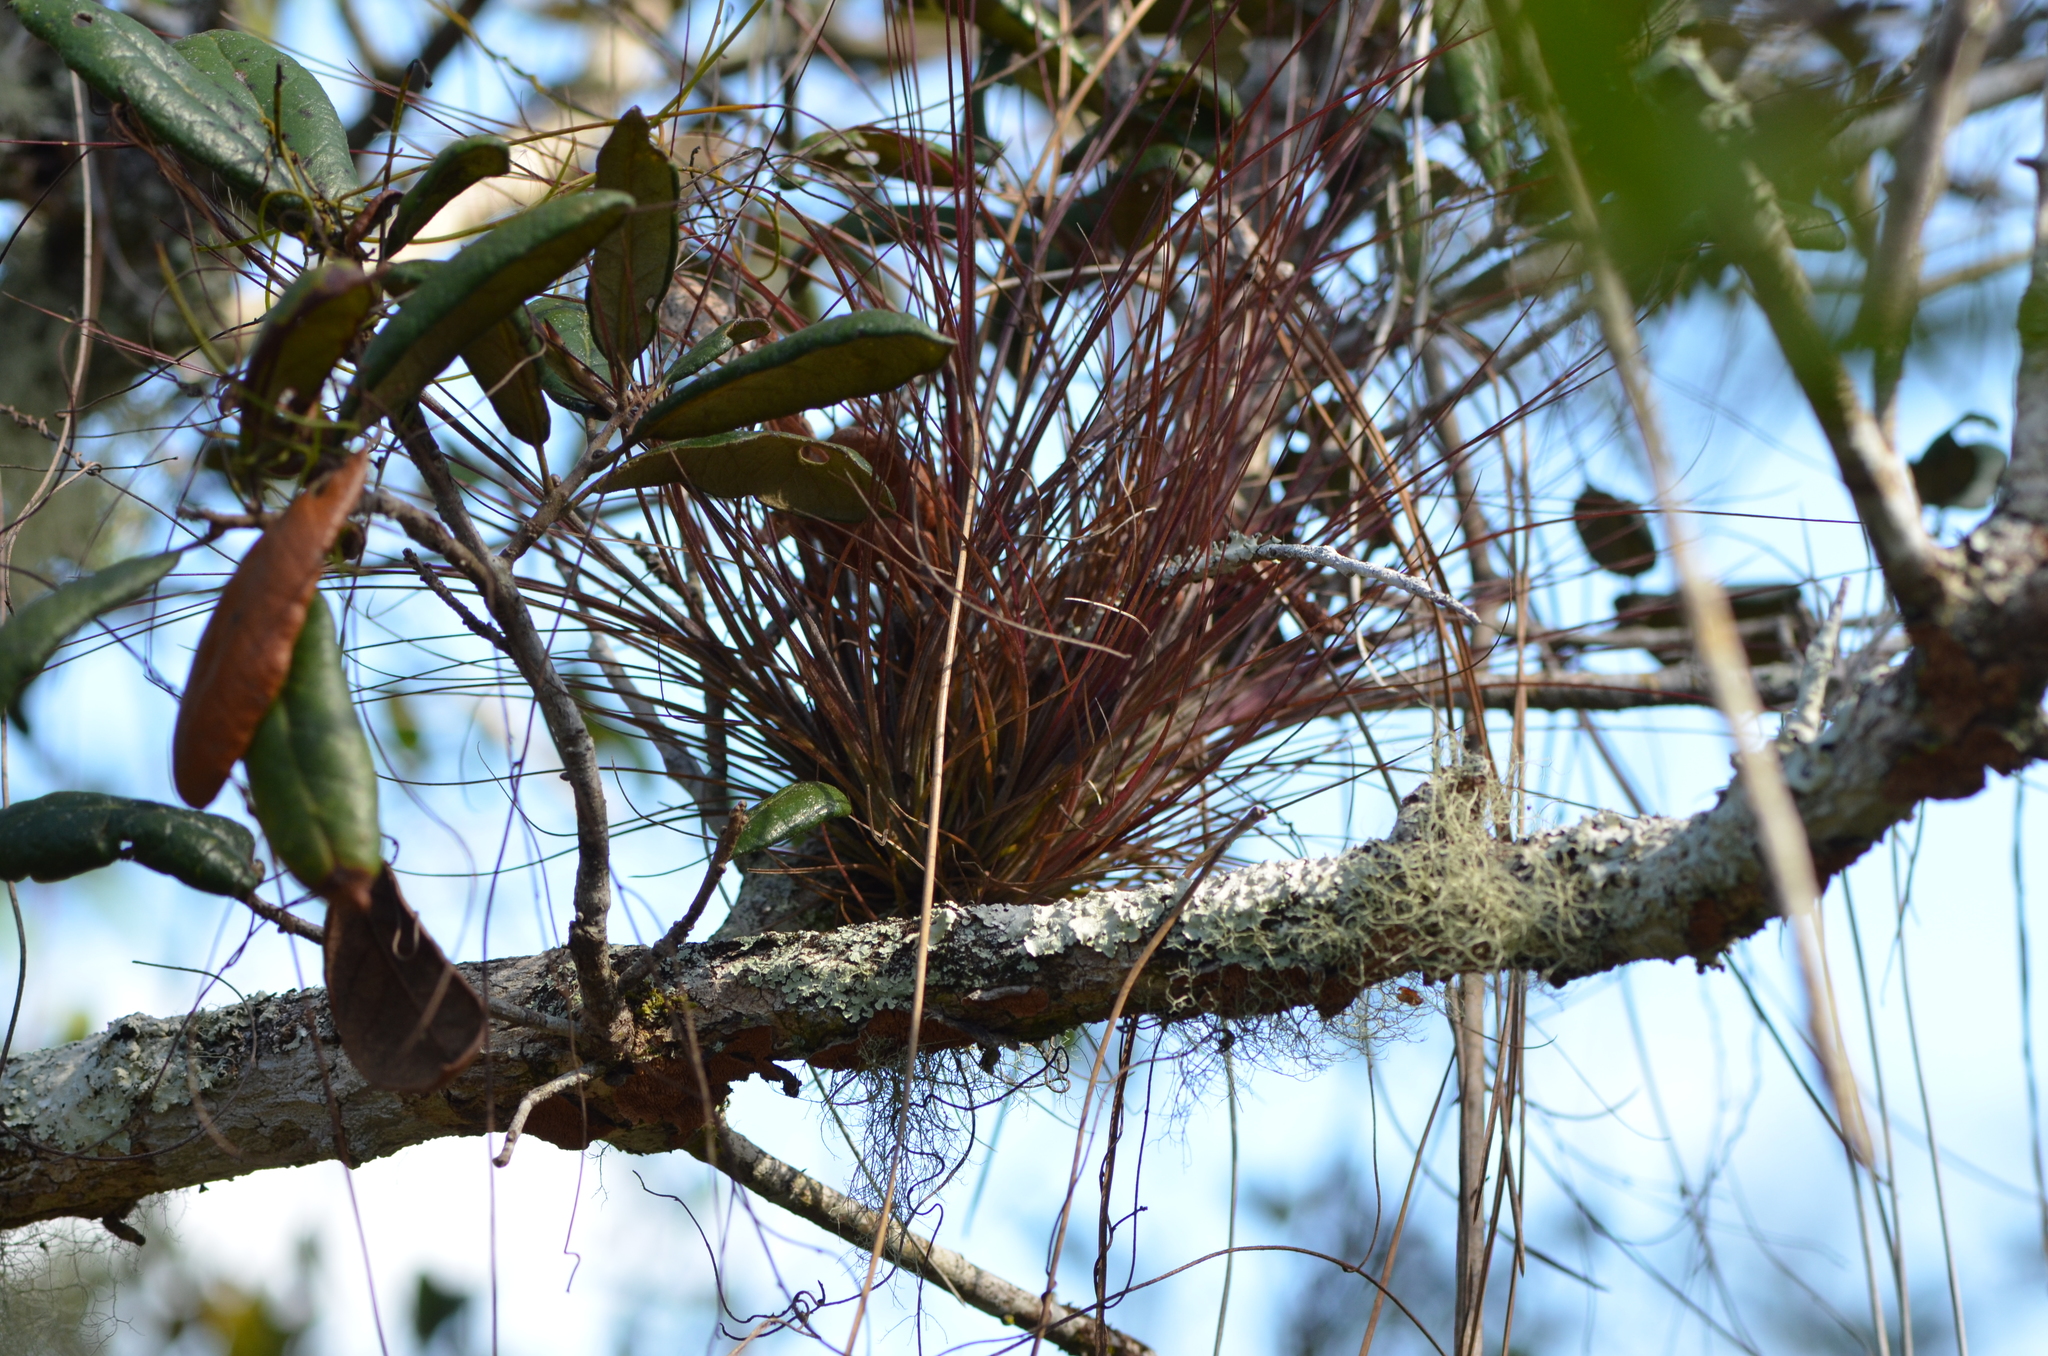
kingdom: Plantae
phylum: Tracheophyta
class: Liliopsida
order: Poales
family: Bromeliaceae
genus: Tillandsia
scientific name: Tillandsia setacea
